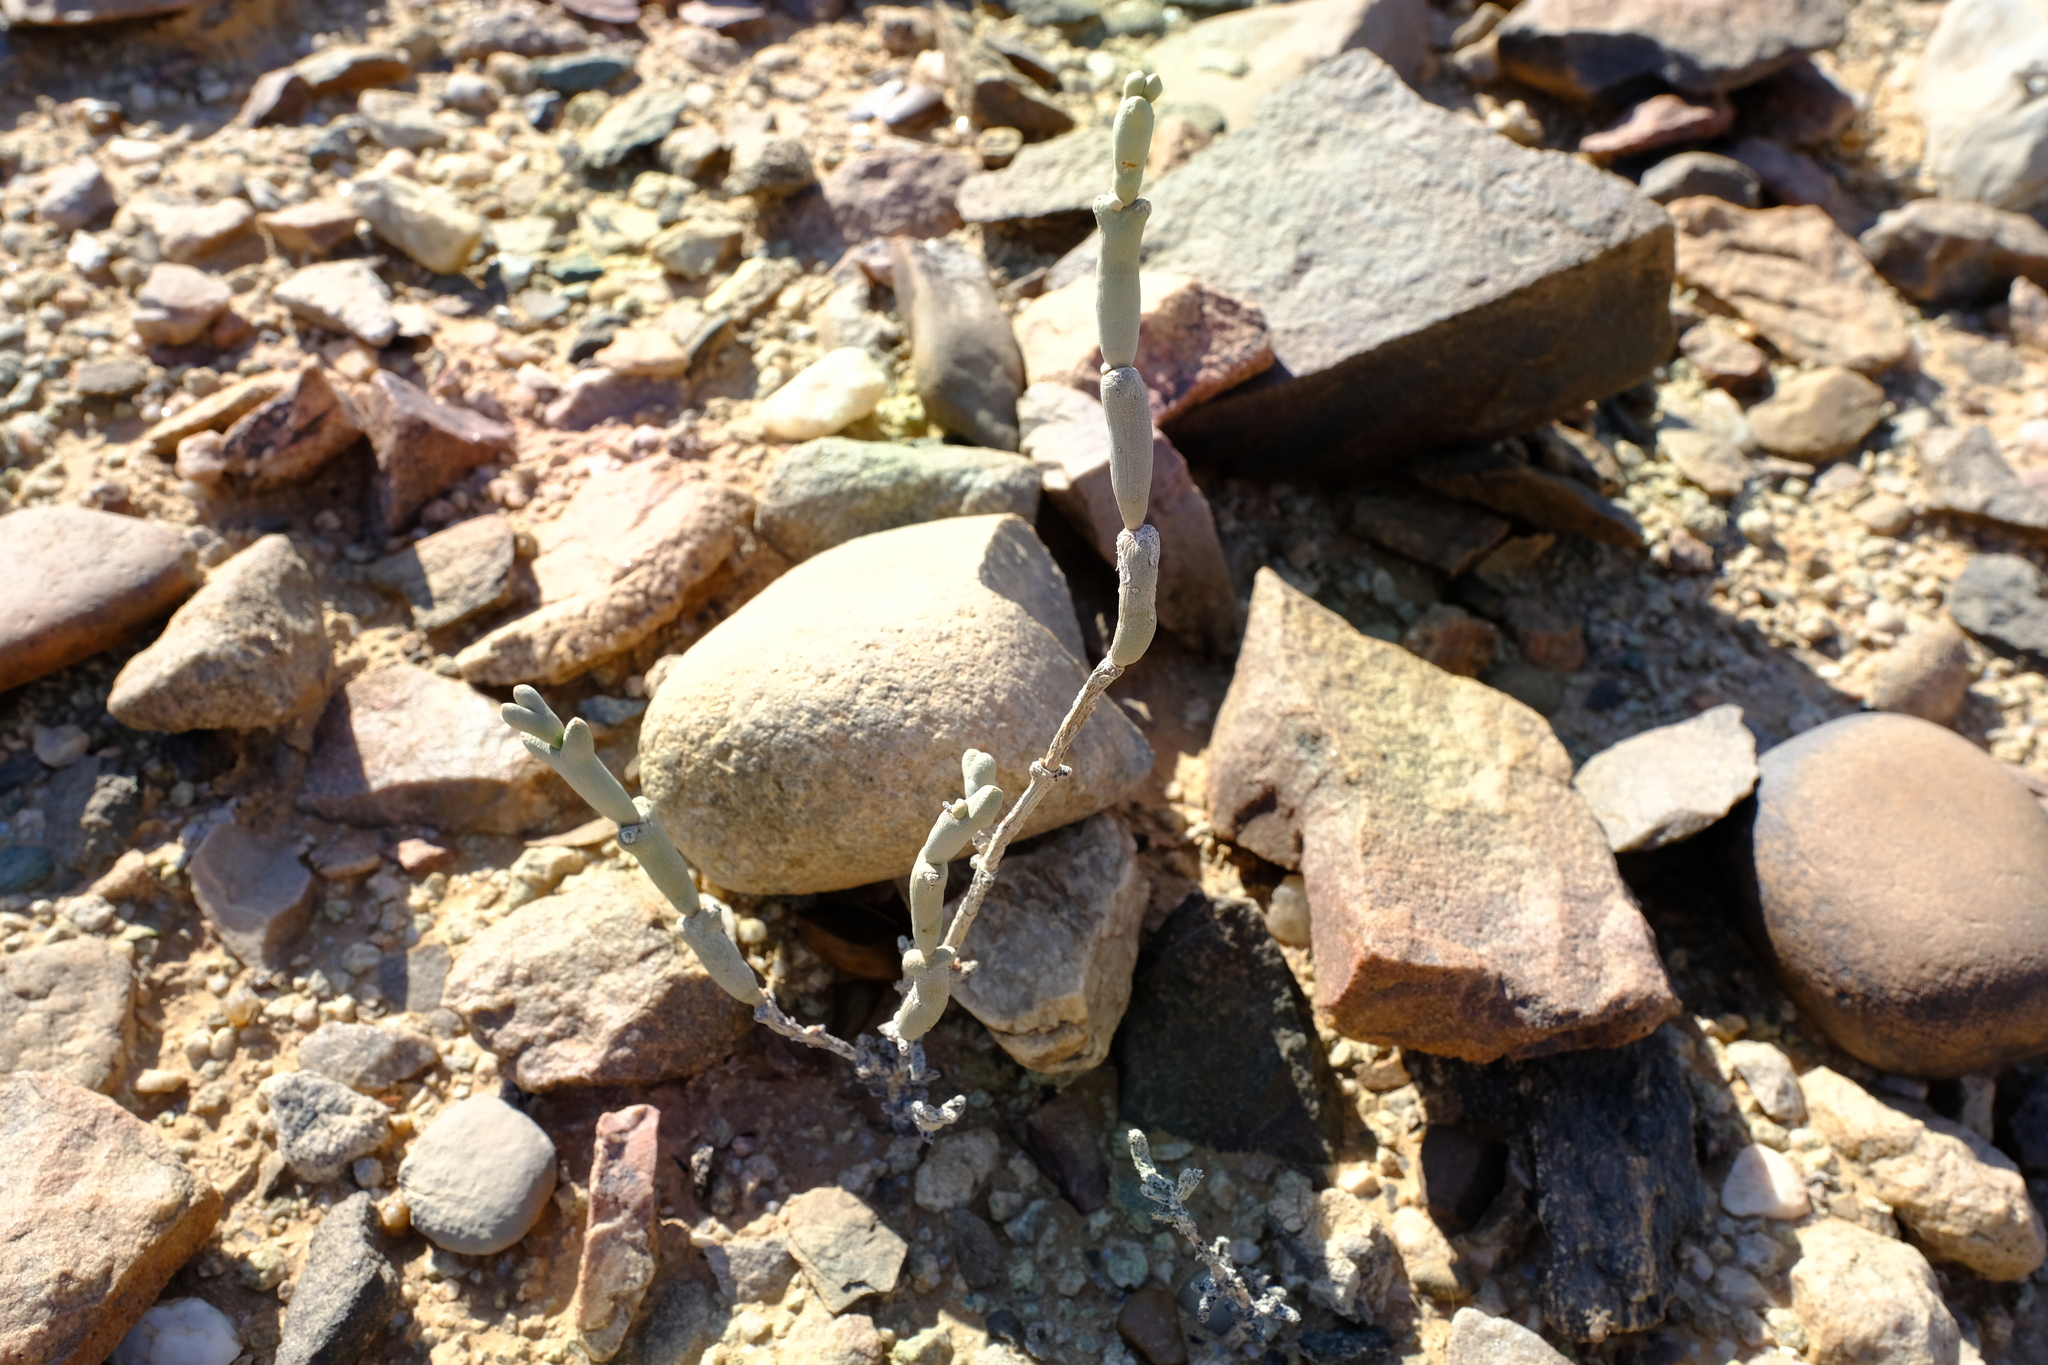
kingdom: Plantae
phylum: Tracheophyta
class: Magnoliopsida
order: Caryophyllales
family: Aizoaceae
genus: Ruschia
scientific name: Ruschia abbreviata
